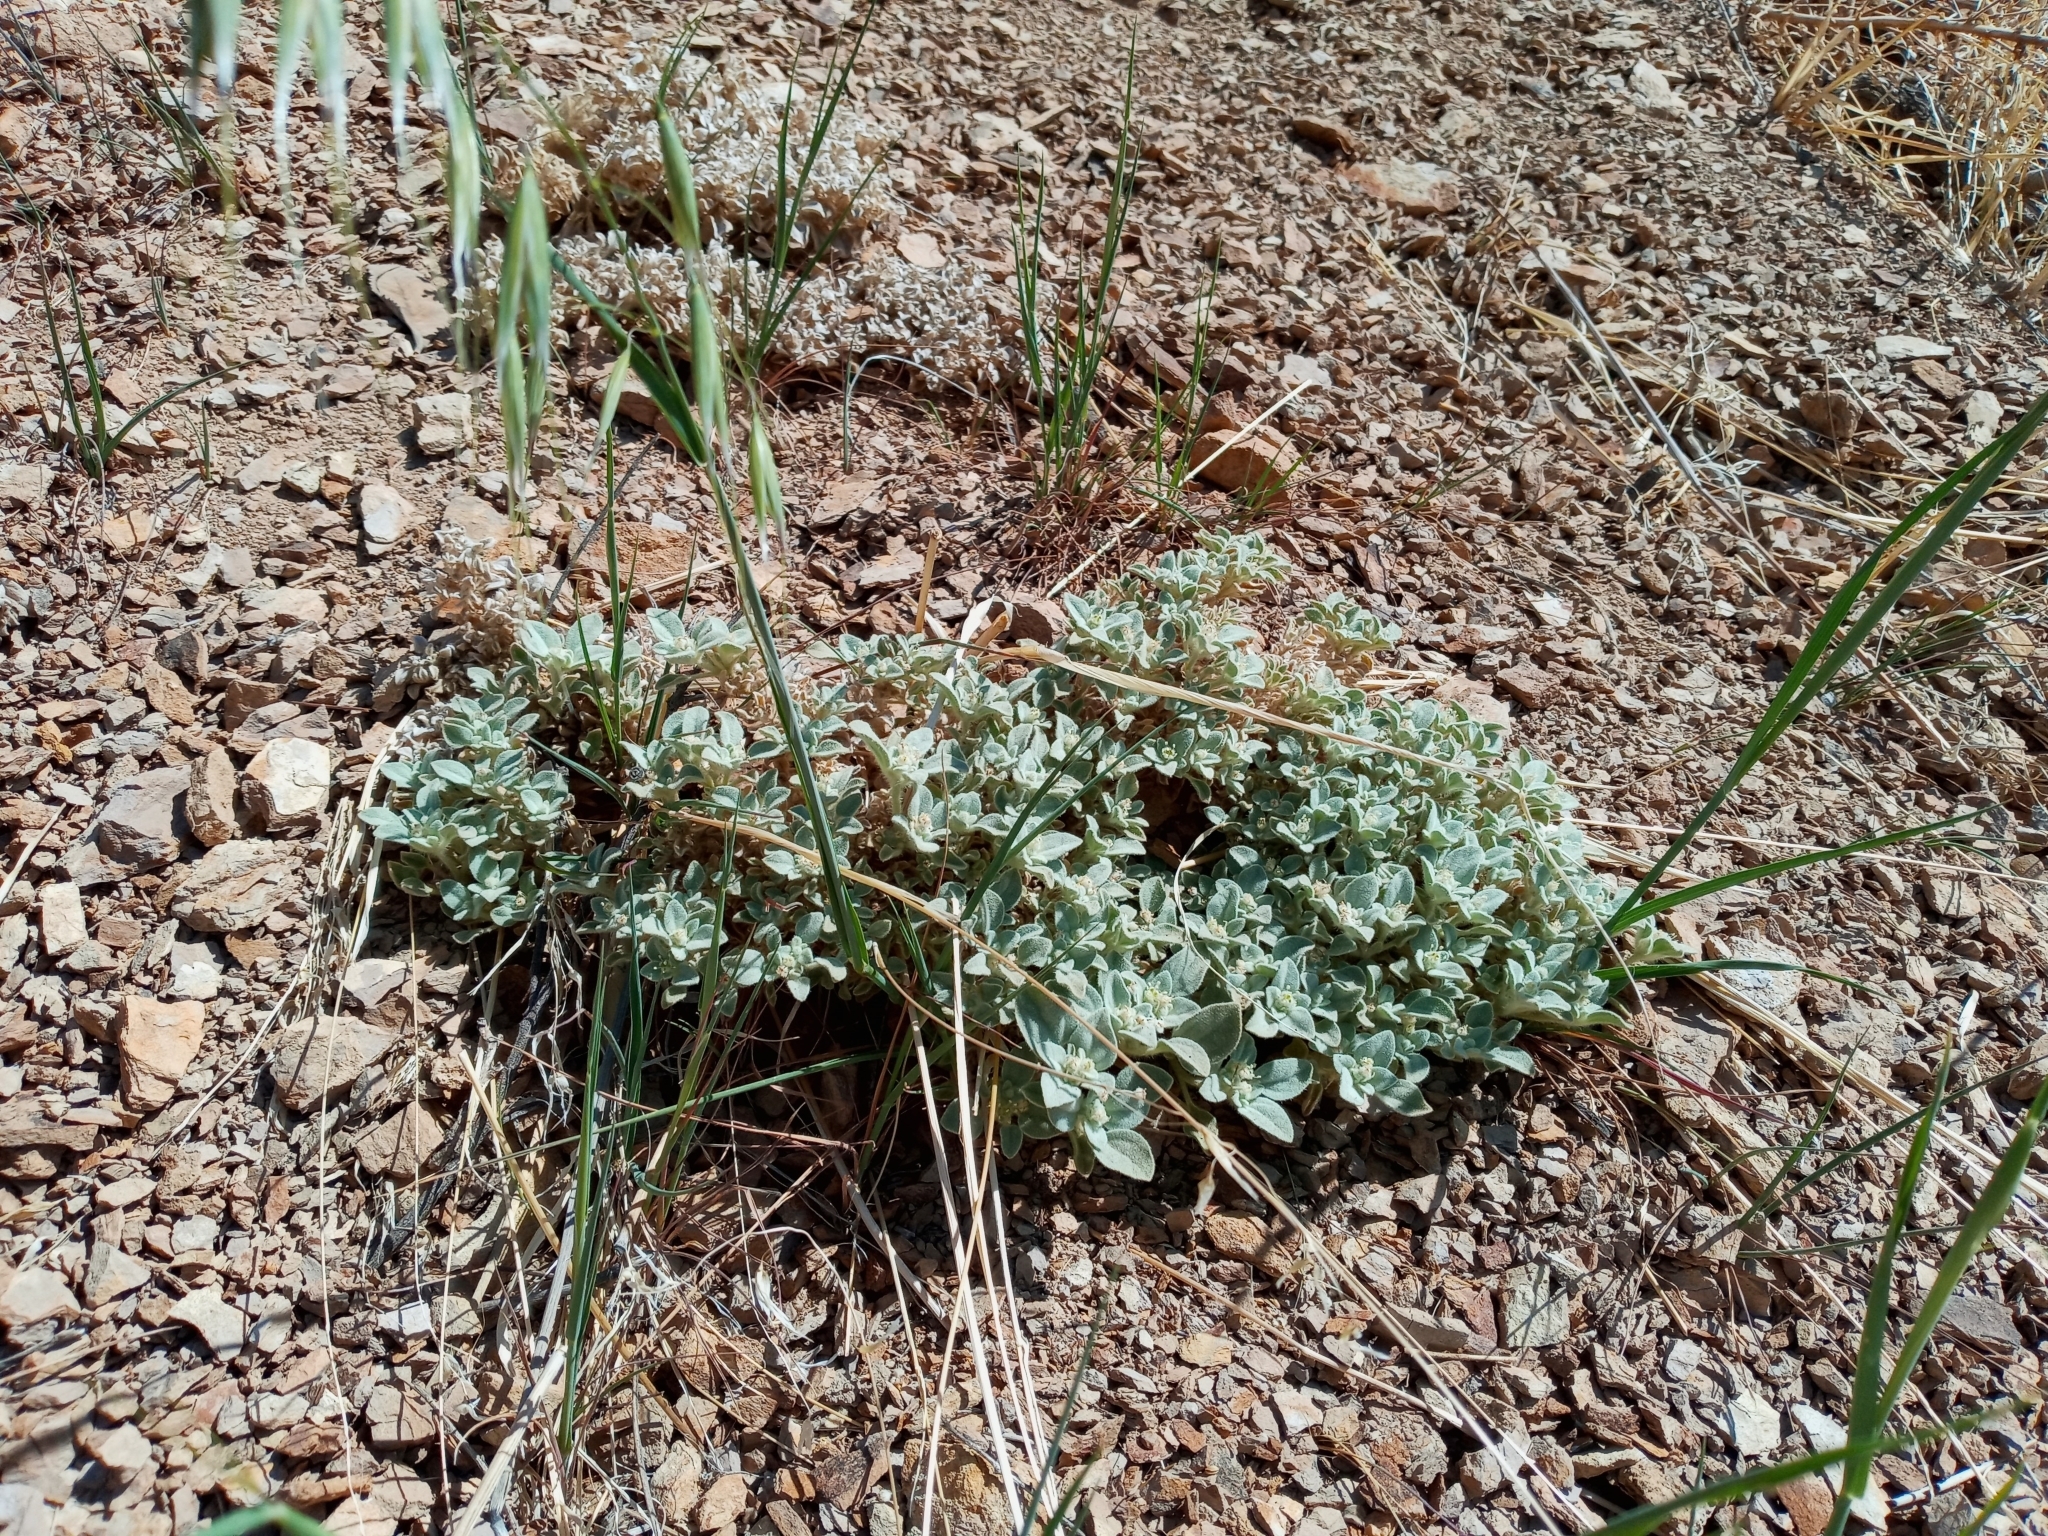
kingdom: Plantae
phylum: Tracheophyta
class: Magnoliopsida
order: Malpighiales
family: Euphorbiaceae
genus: Croton
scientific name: Croton setiger
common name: Dove weed
